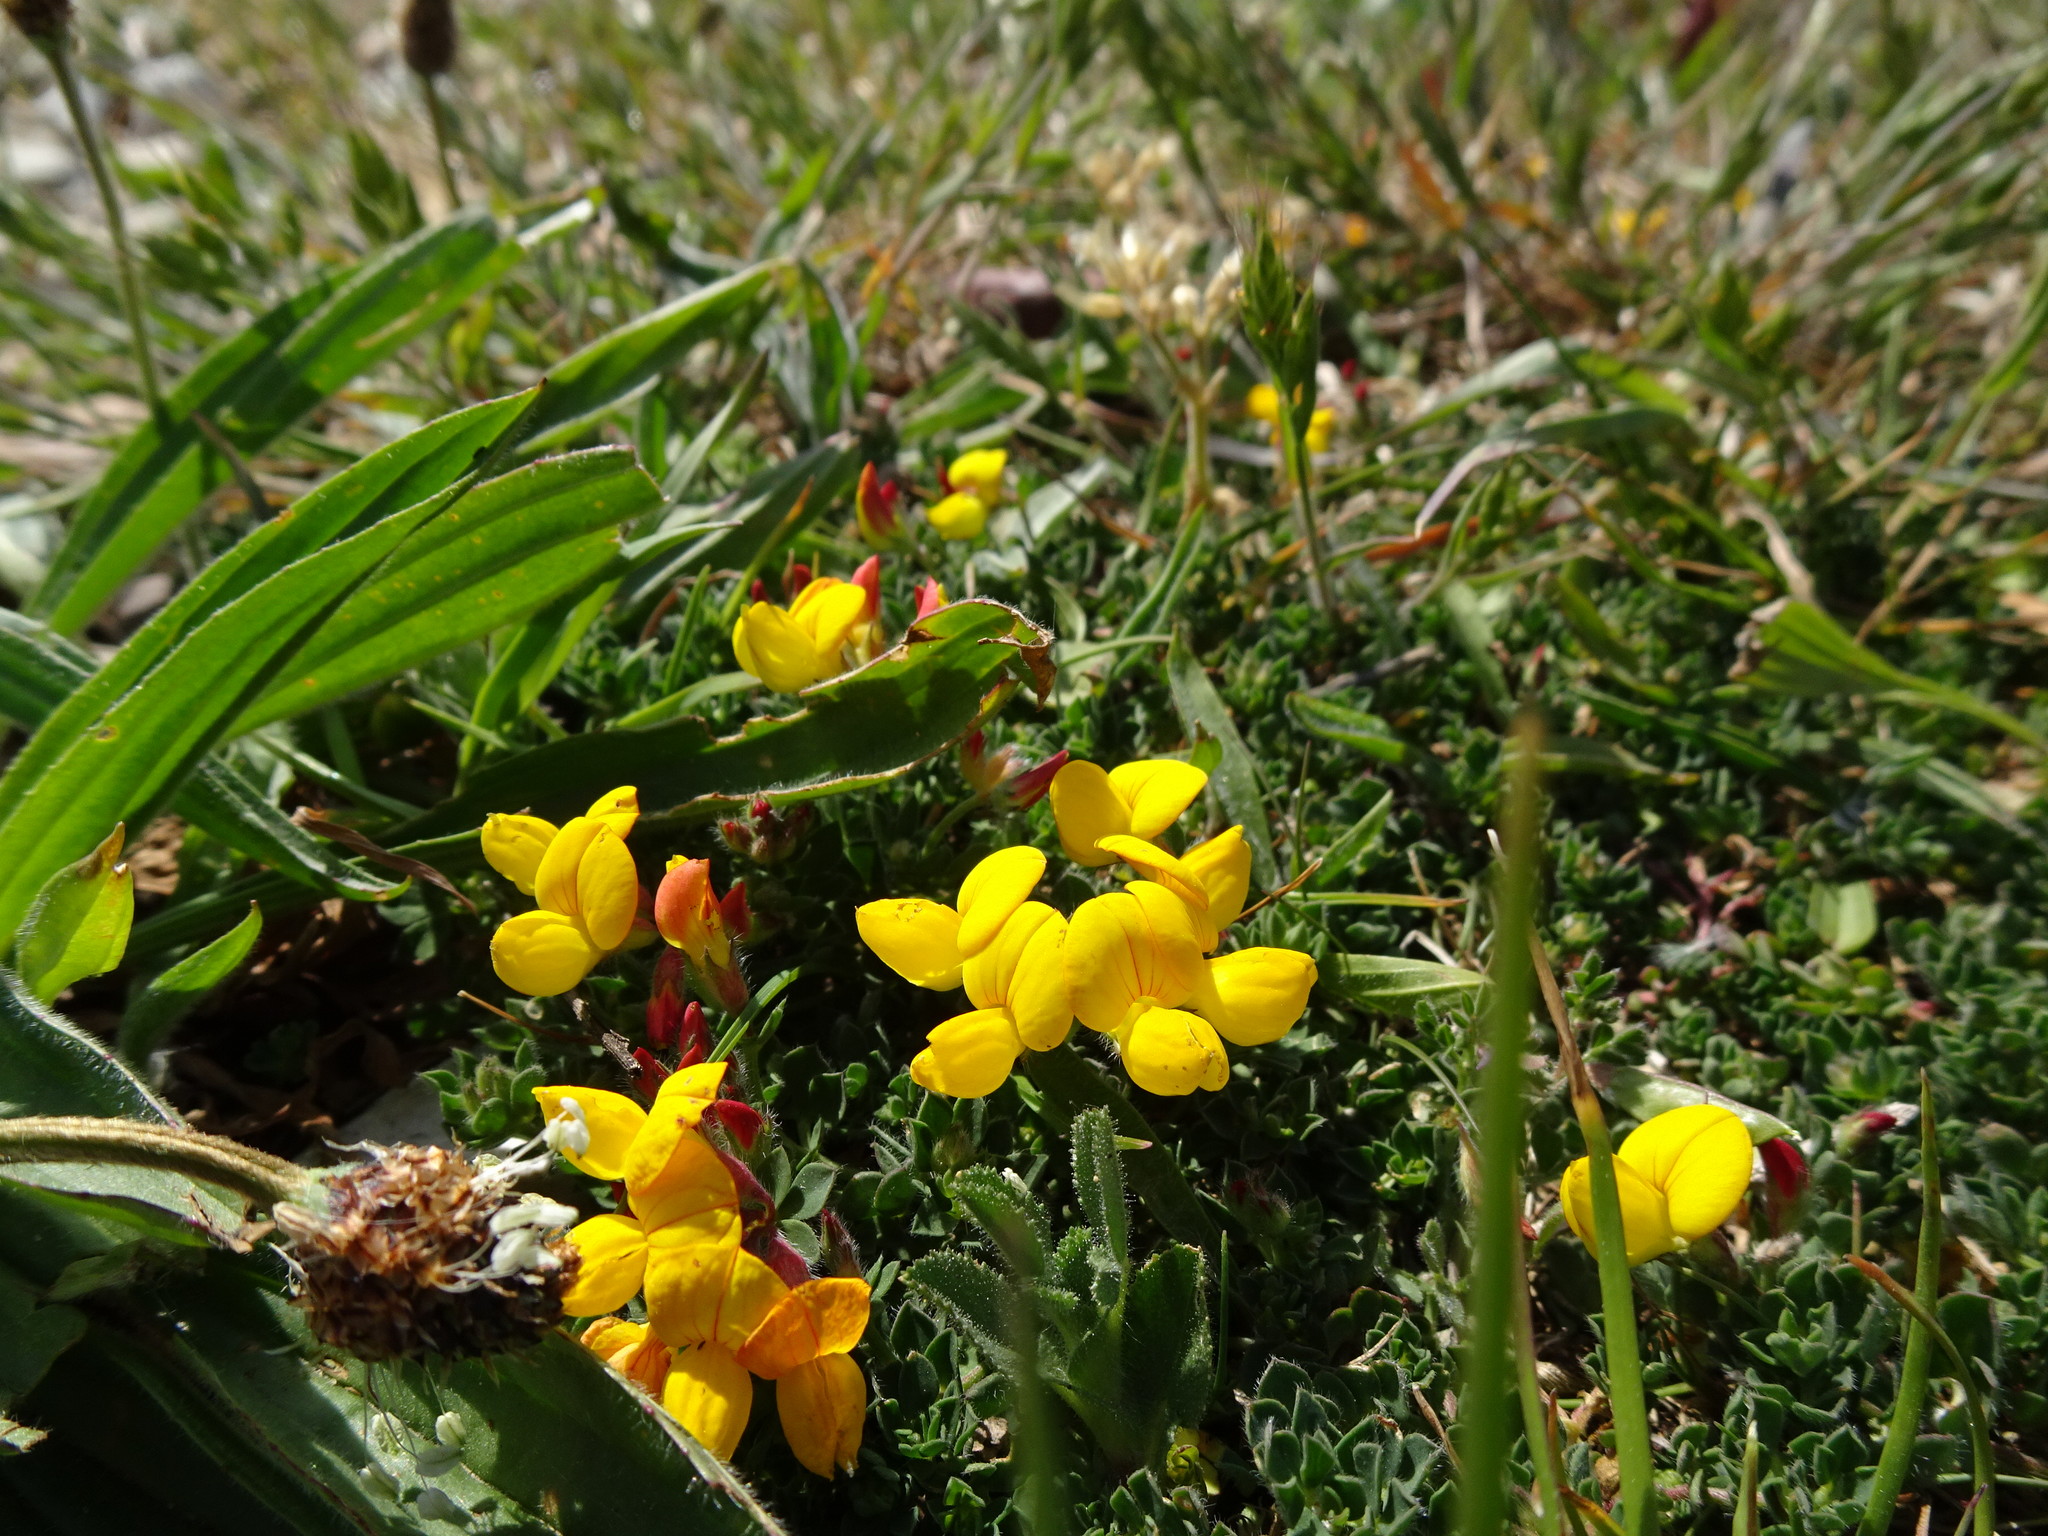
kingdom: Plantae
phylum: Tracheophyta
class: Magnoliopsida
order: Fabales
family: Fabaceae
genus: Lotus
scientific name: Lotus corniculatus
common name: Common bird's-foot-trefoil
